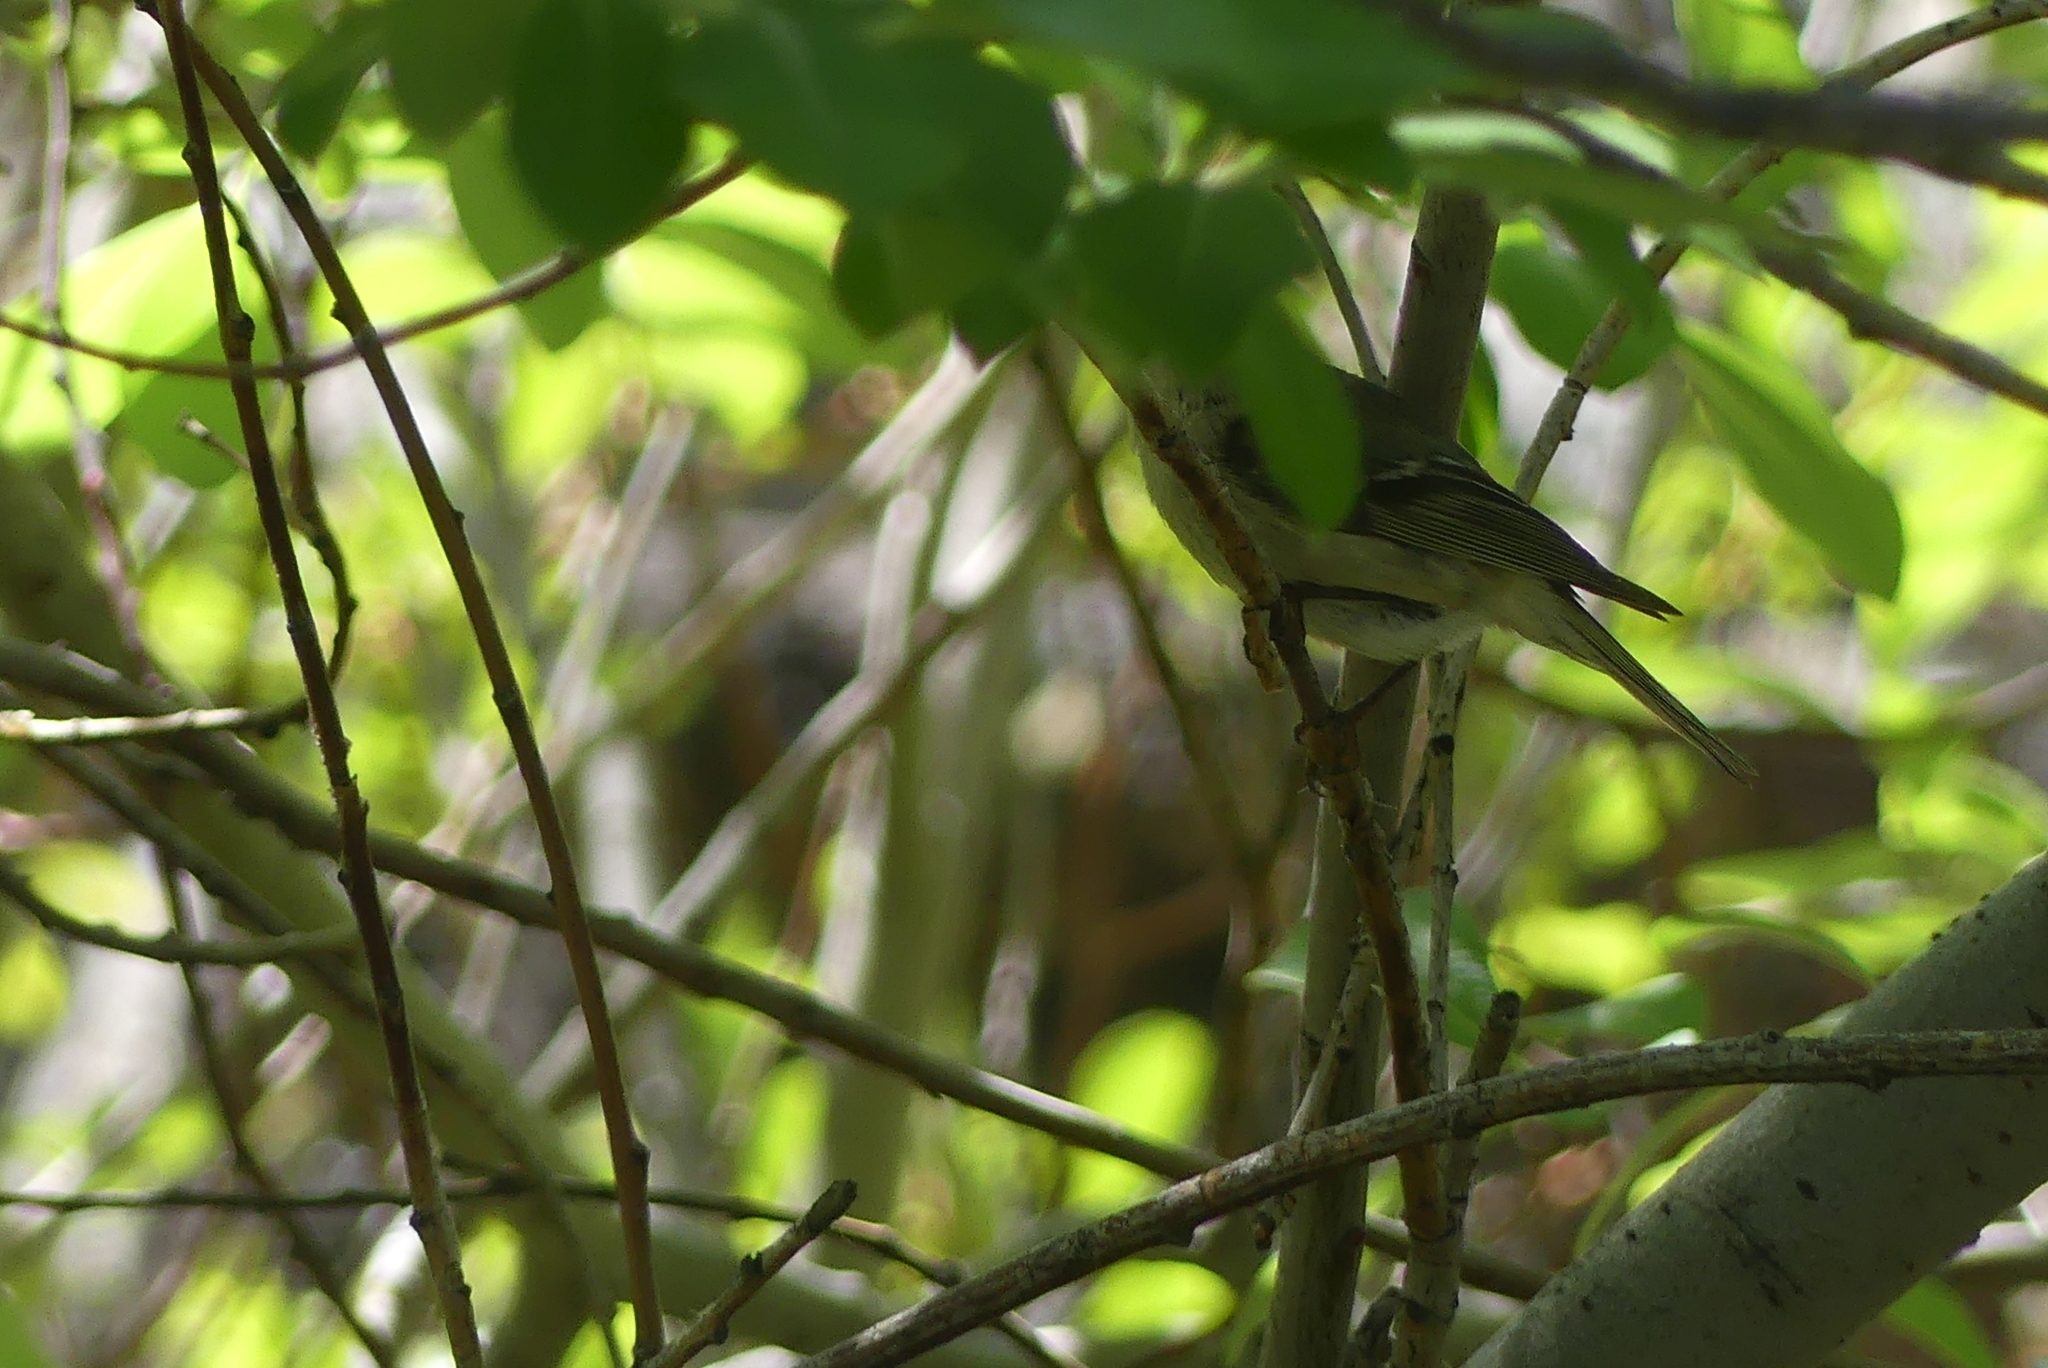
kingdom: Animalia
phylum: Chordata
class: Aves
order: Passeriformes
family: Regulidae
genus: Regulus
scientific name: Regulus calendula
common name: Ruby-crowned kinglet
